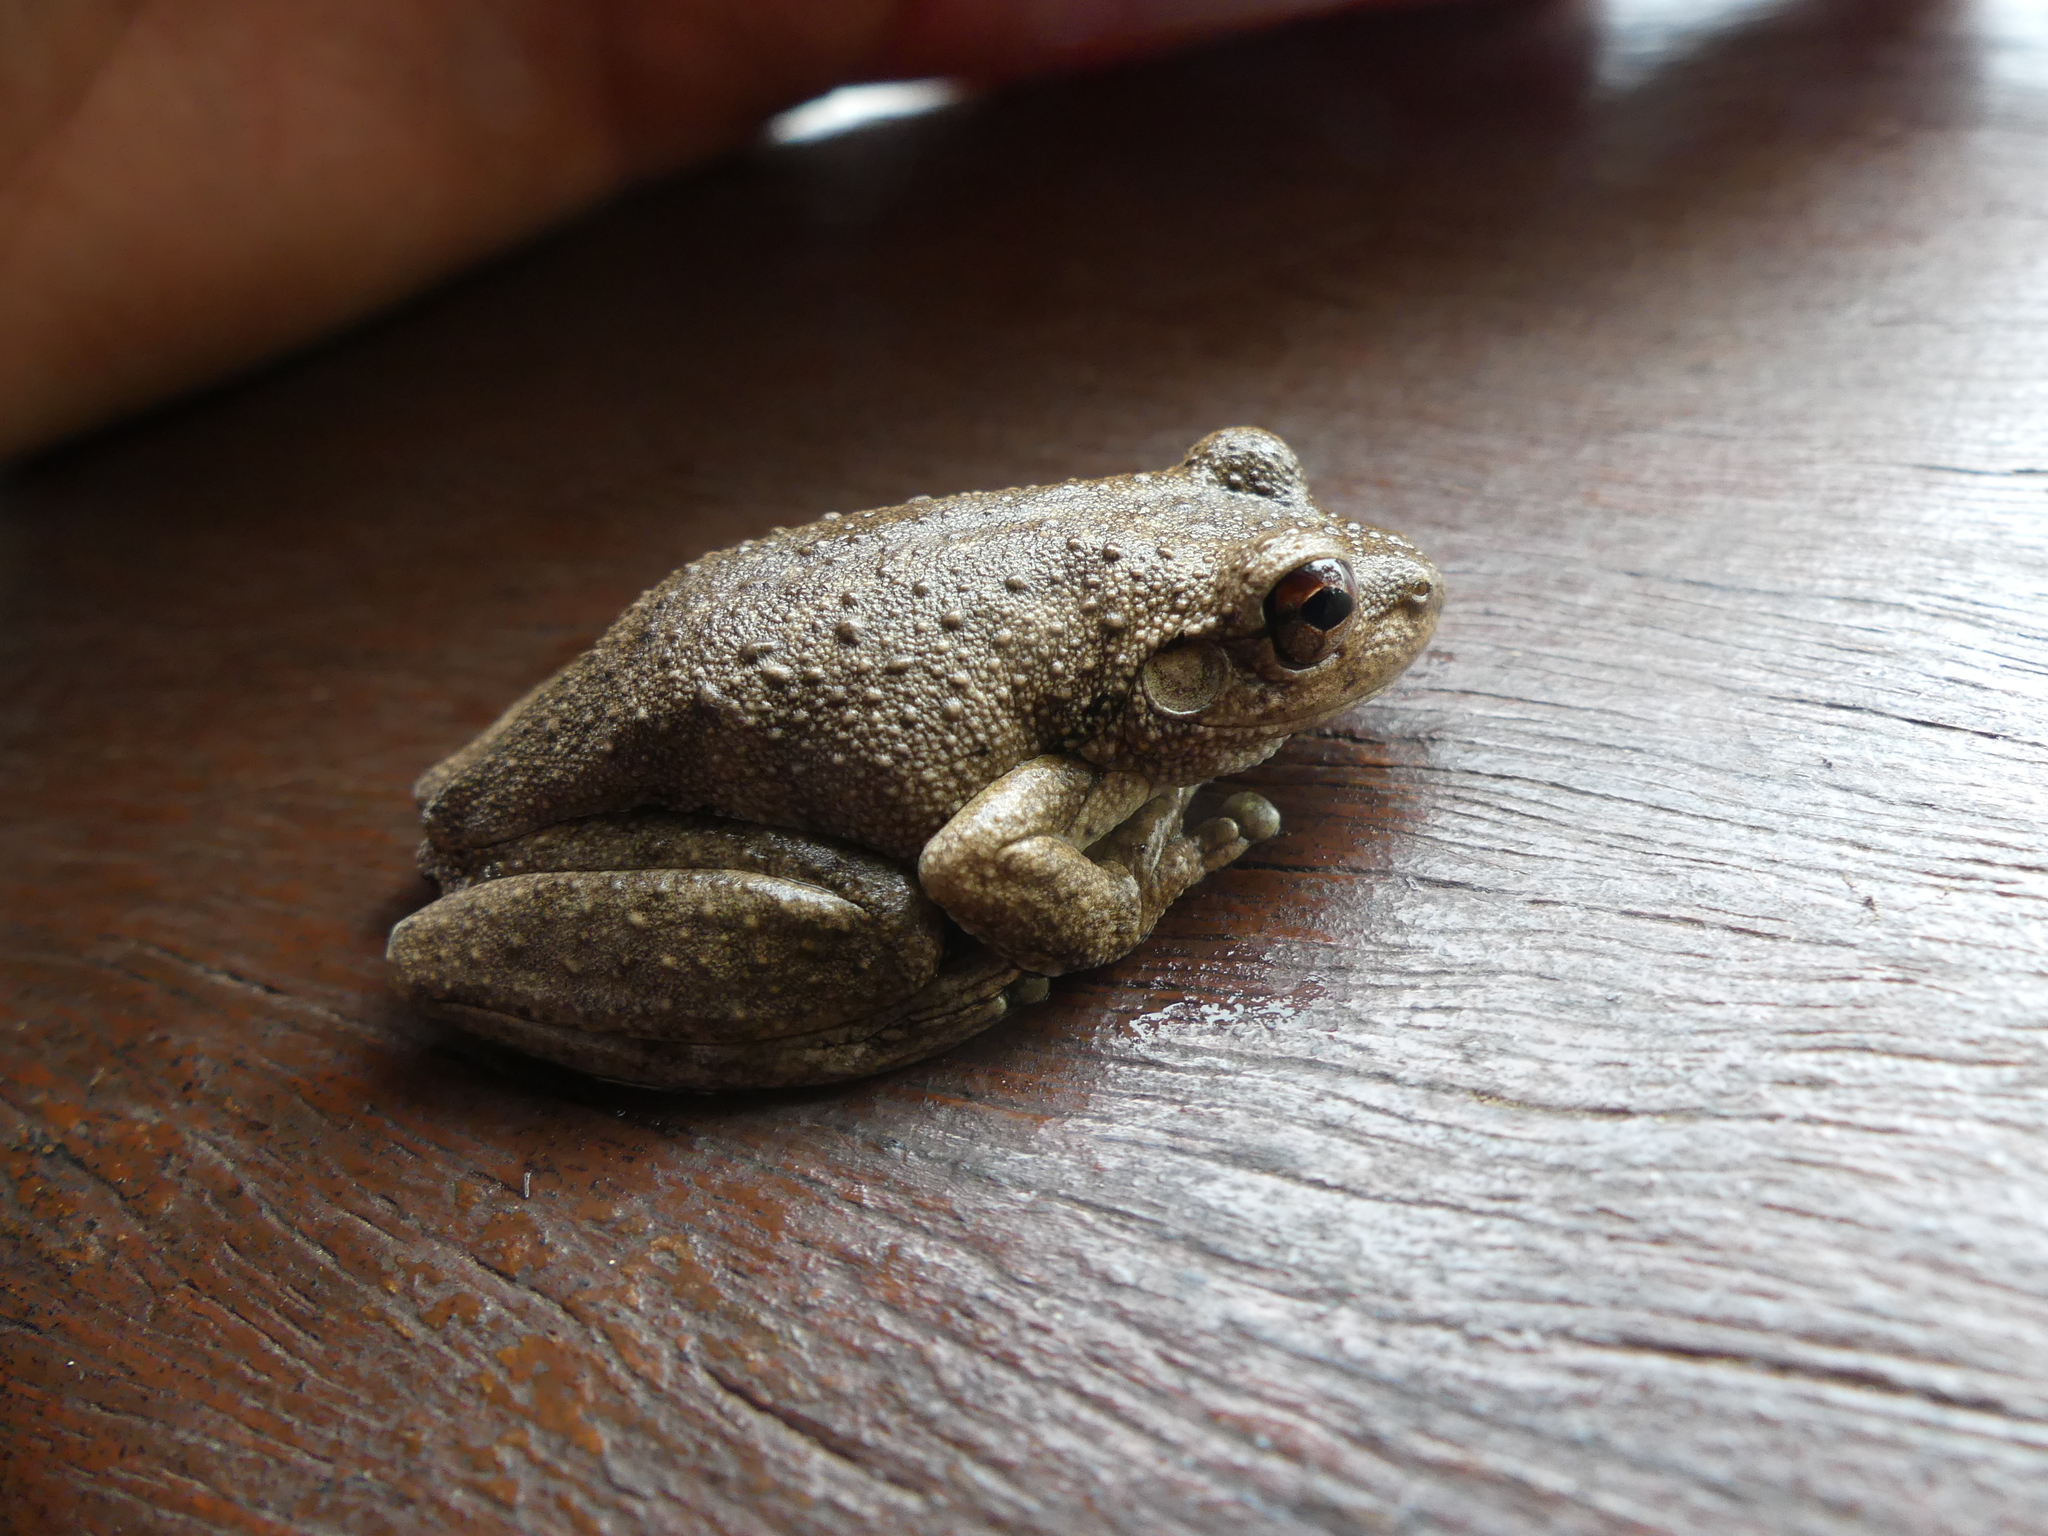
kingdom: Animalia
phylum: Chordata
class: Amphibia
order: Anura
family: Pelodryadidae
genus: Litoria
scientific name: Litoria rothii
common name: Roth’s tree frog
